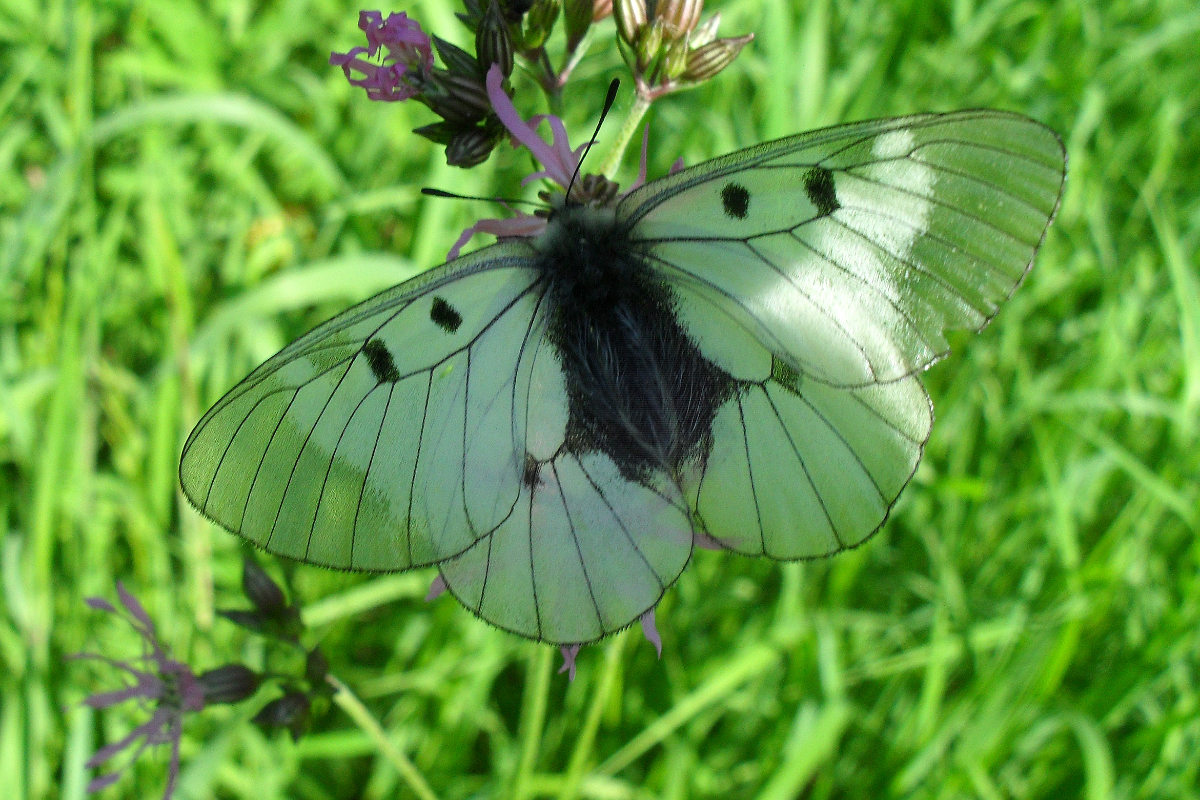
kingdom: Animalia
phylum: Arthropoda
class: Insecta
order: Lepidoptera
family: Papilionidae
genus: Parnassius
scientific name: Parnassius mnemosyne
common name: Clouded apollo
